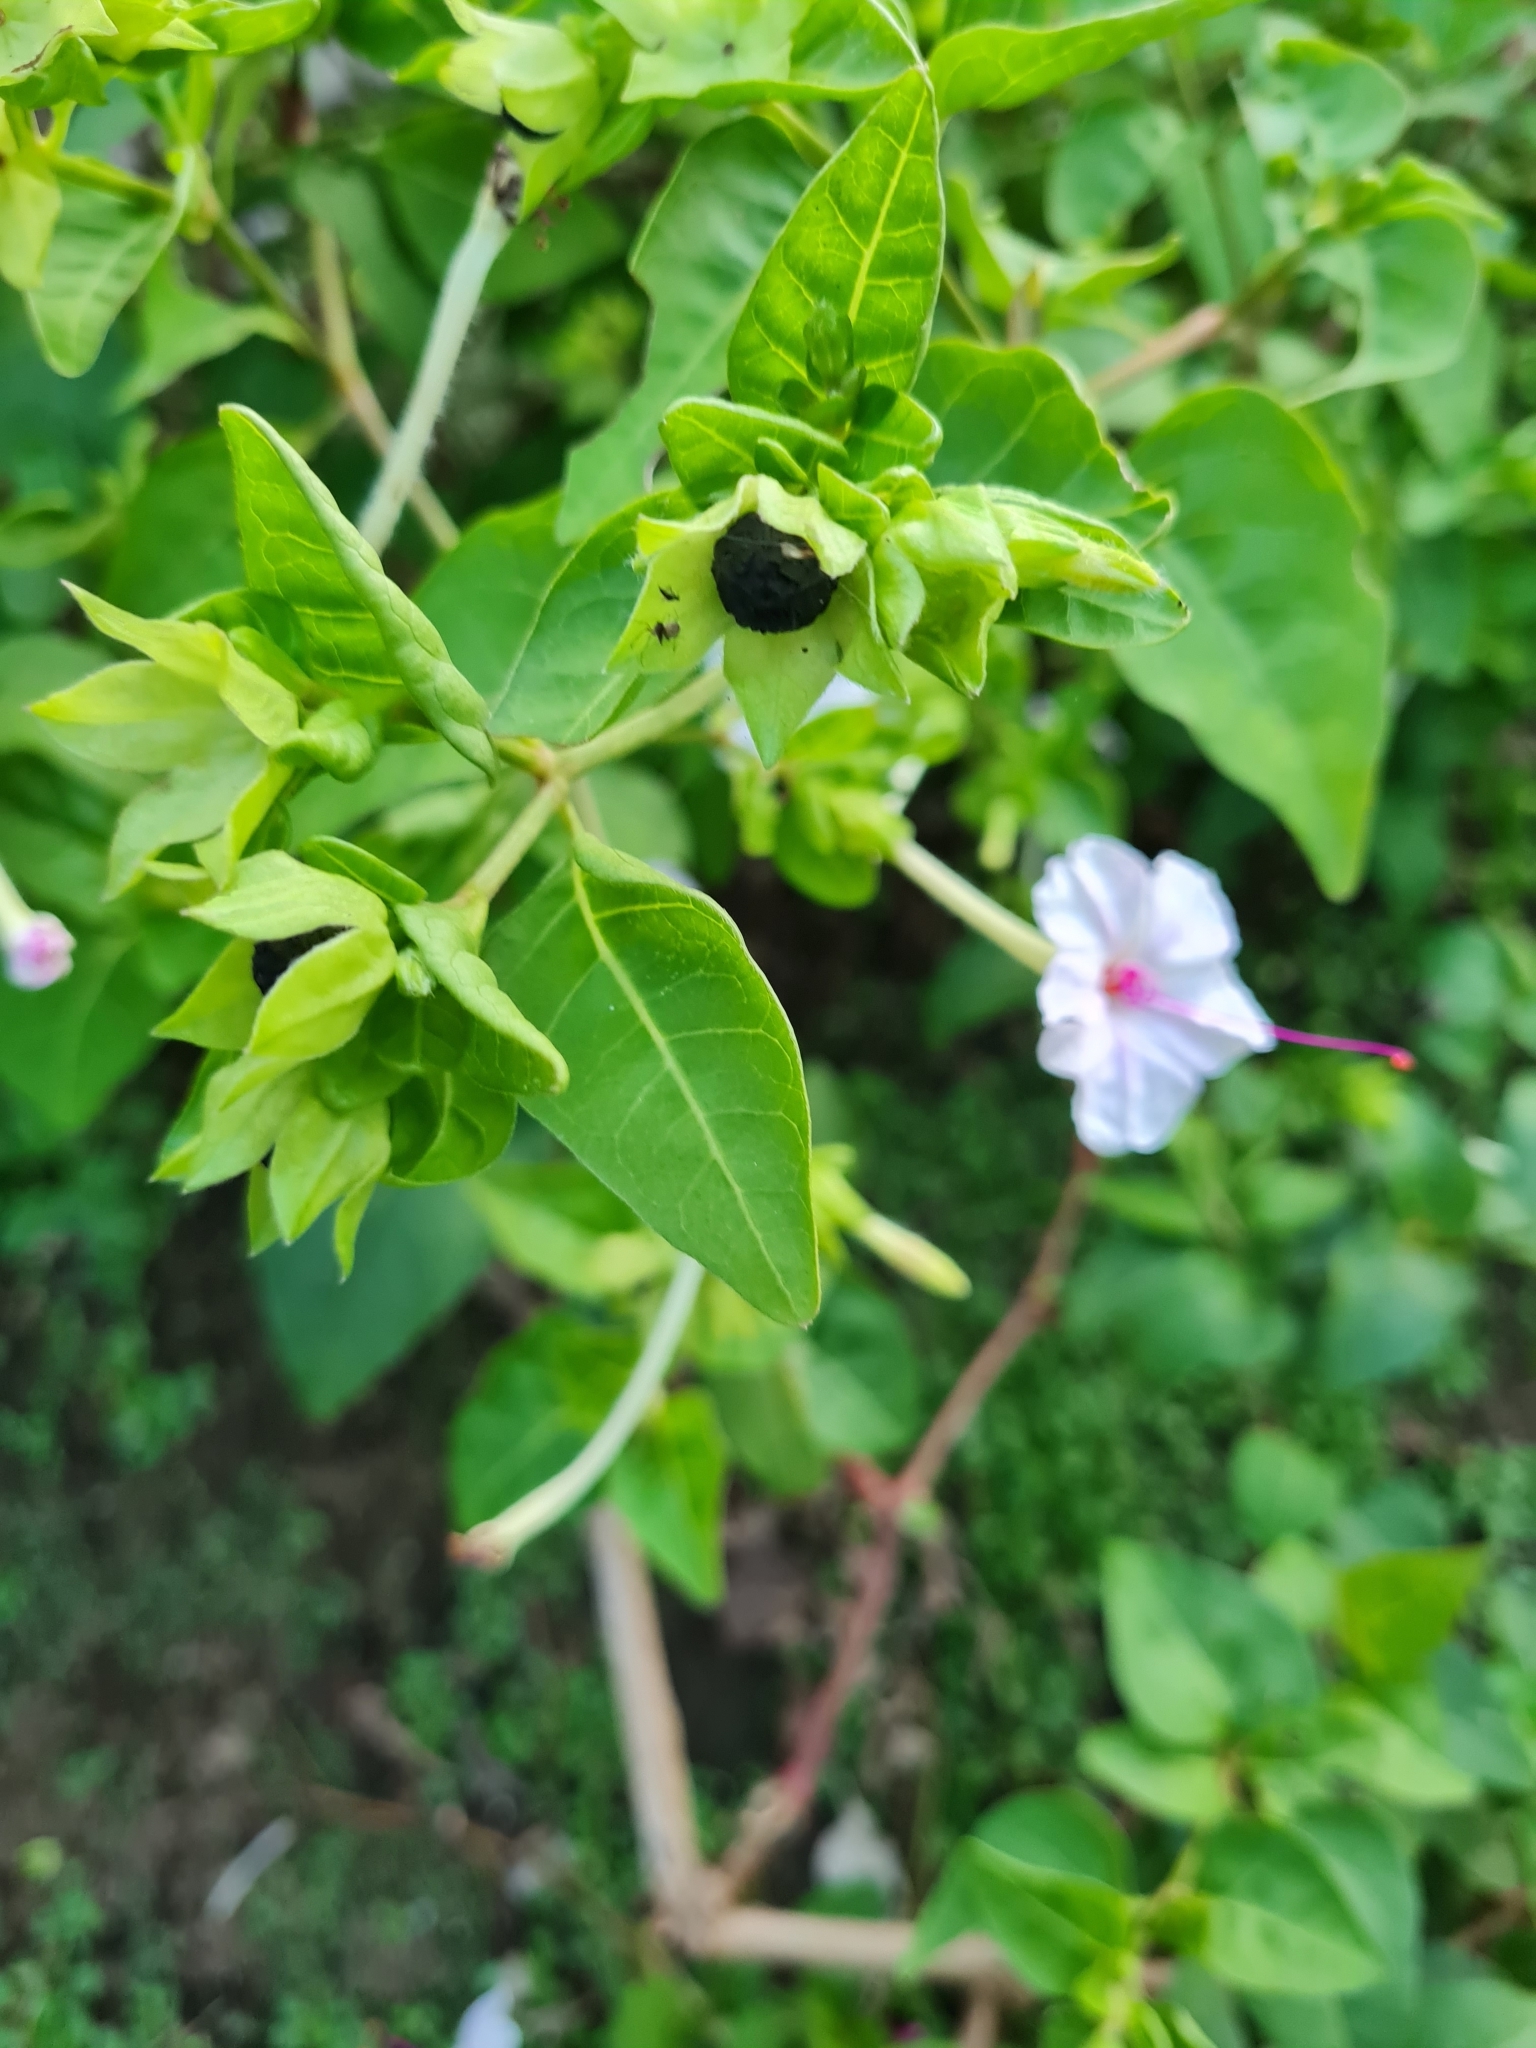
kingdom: Plantae
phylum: Tracheophyta
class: Magnoliopsida
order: Caryophyllales
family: Nyctaginaceae
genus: Mirabilis
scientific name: Mirabilis longiflora
